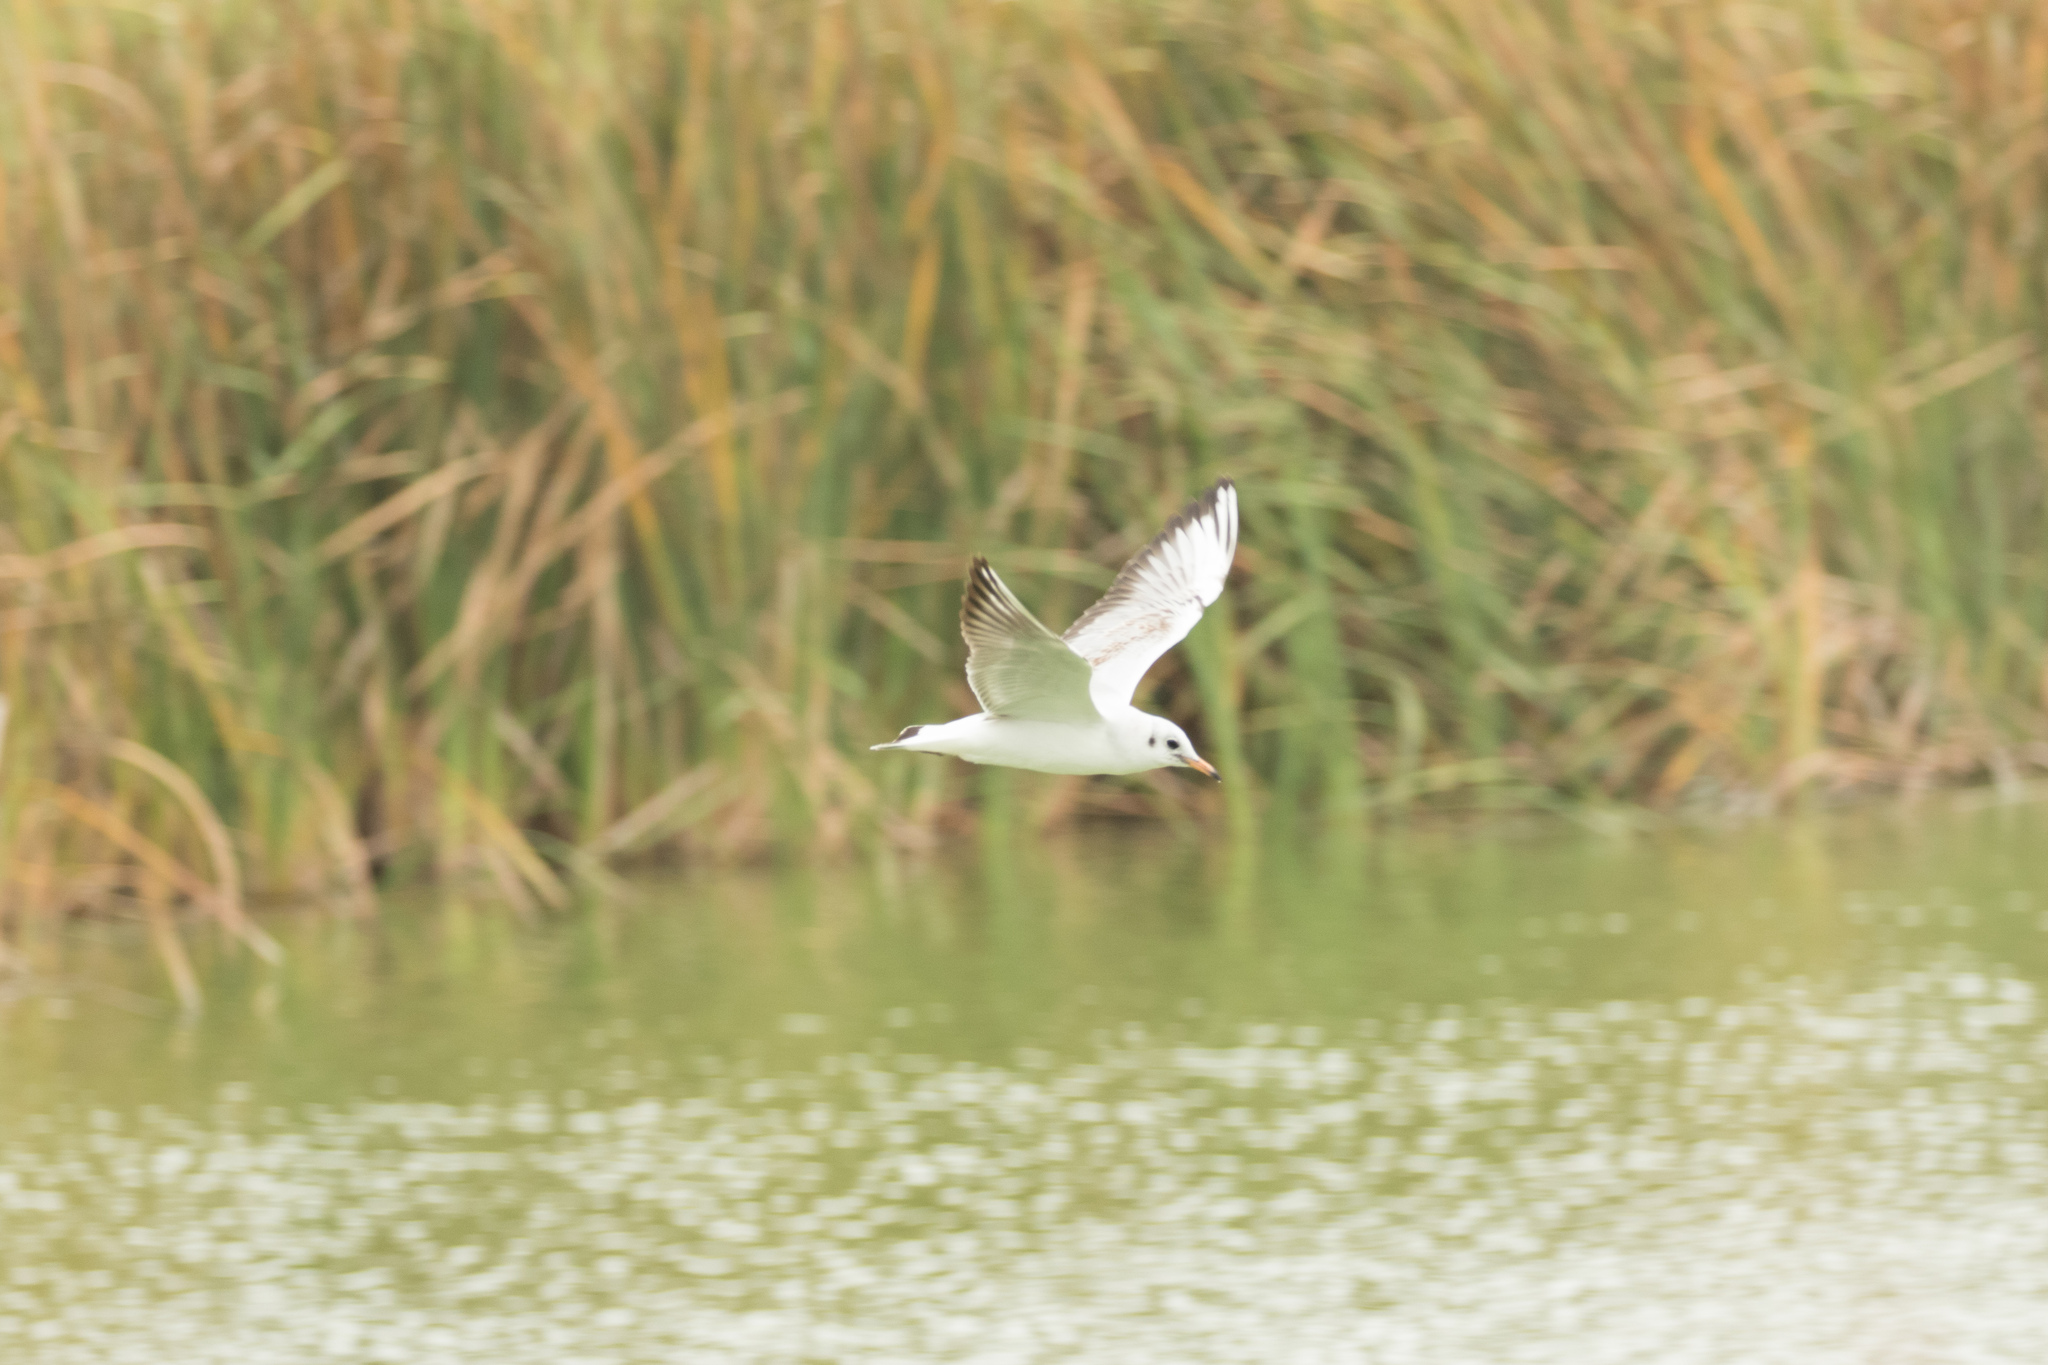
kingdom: Animalia
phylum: Chordata
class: Aves
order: Charadriiformes
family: Laridae
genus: Chroicocephalus
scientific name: Chroicocephalus ridibundus
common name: Black-headed gull
